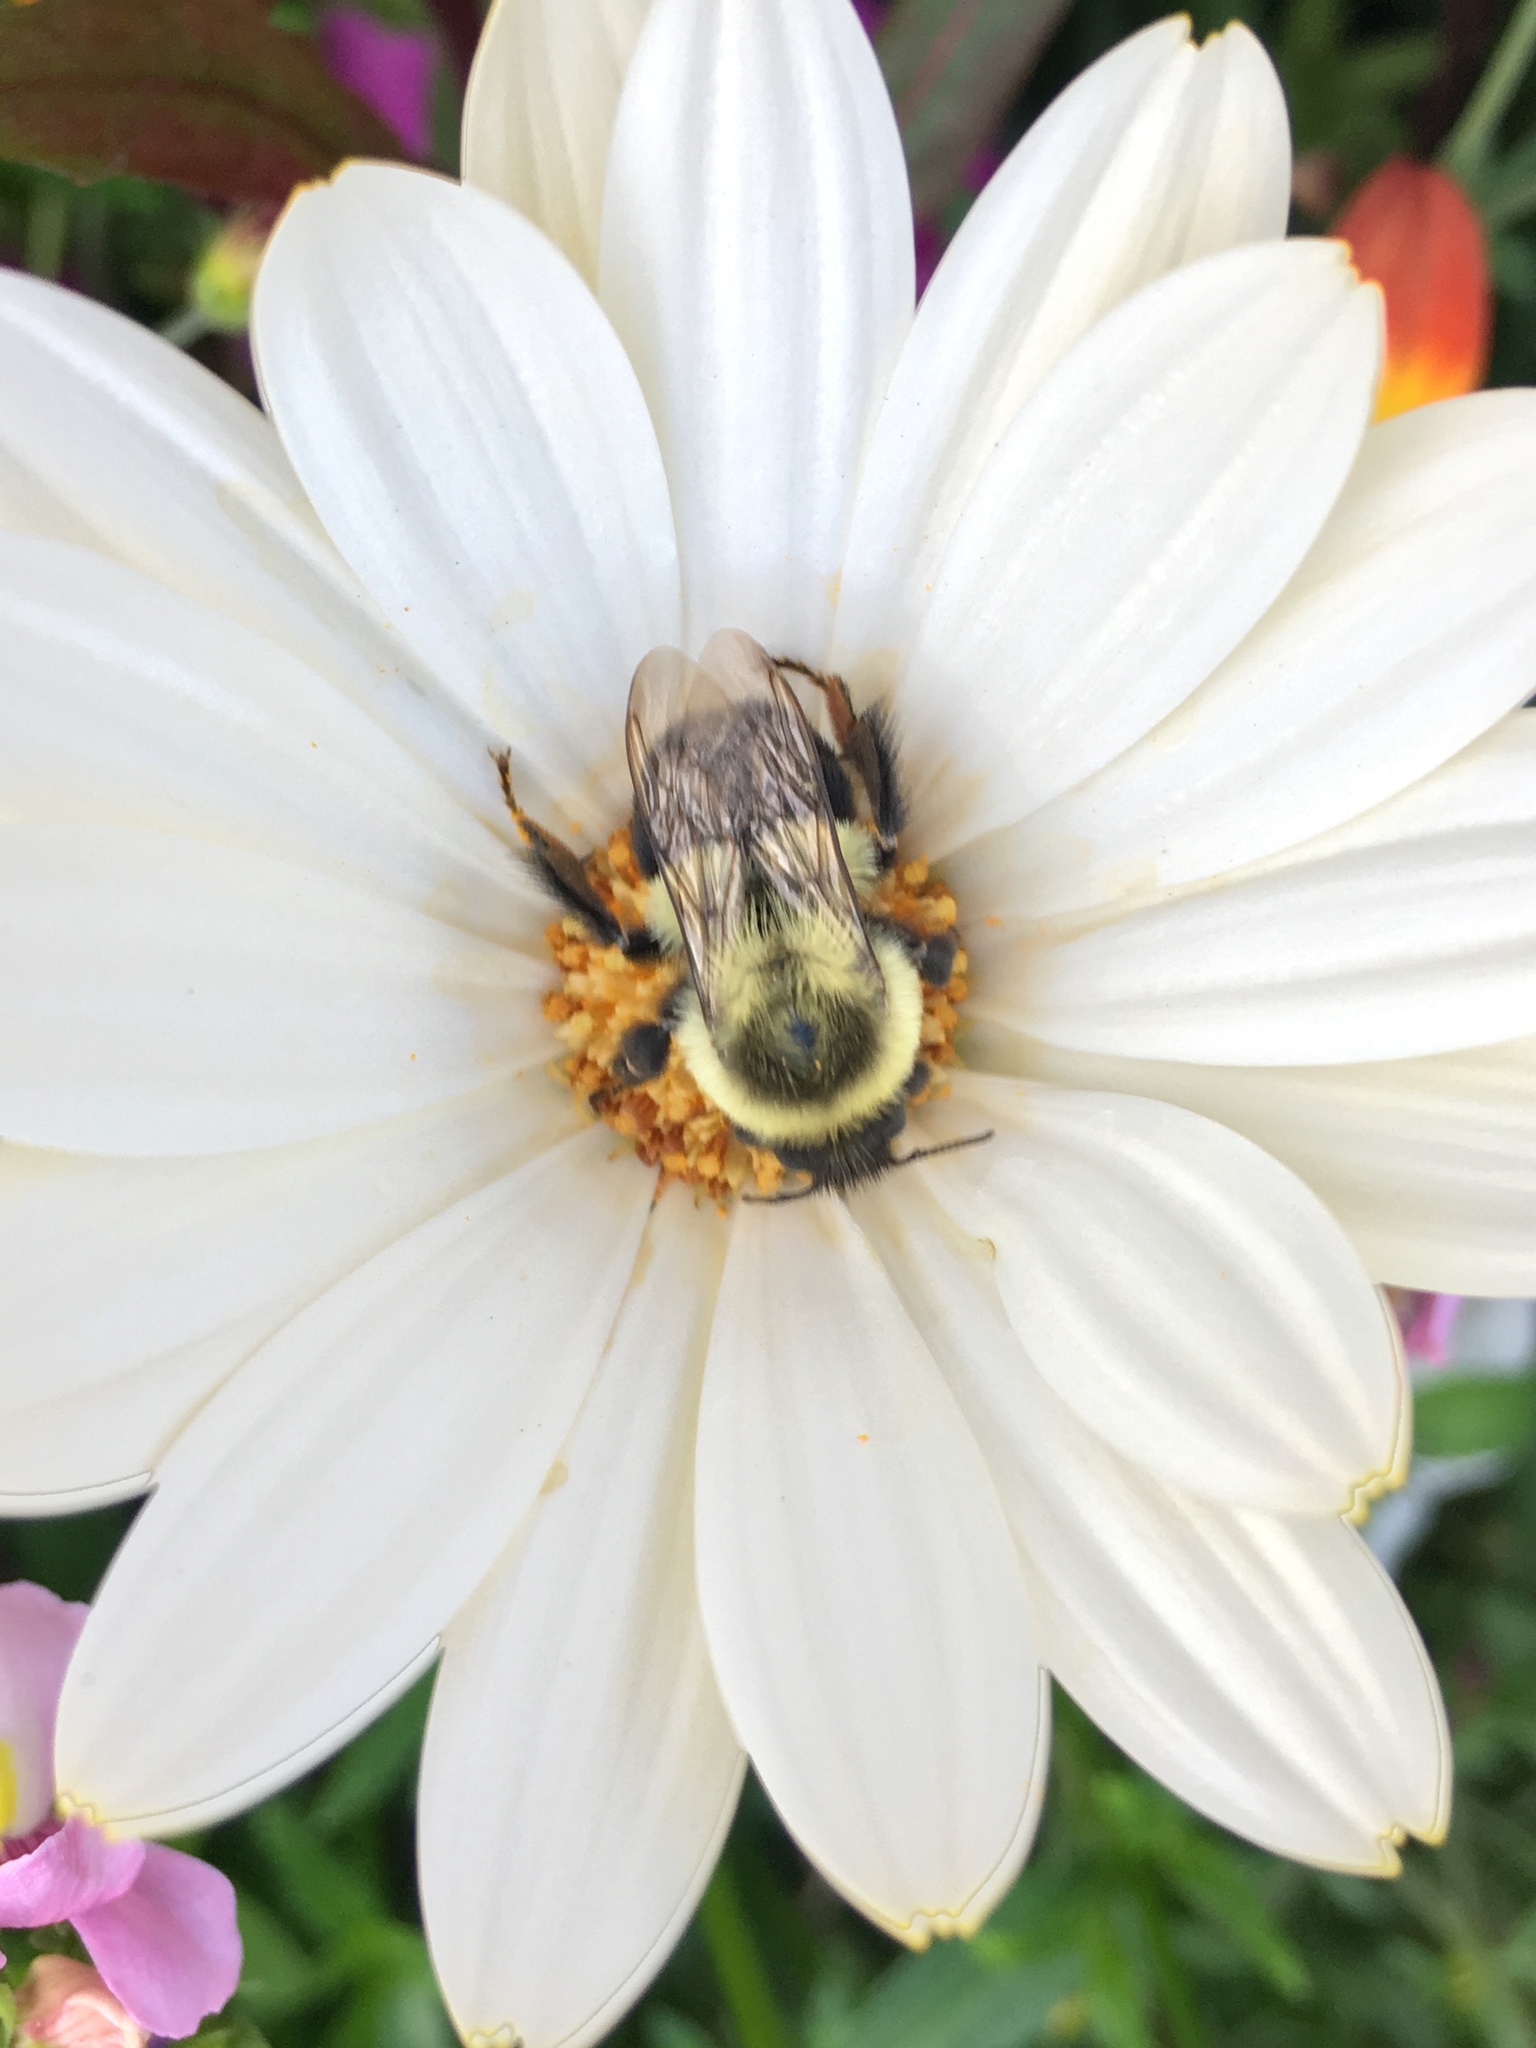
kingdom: Animalia
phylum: Arthropoda
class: Insecta
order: Hymenoptera
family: Apidae
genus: Bombus
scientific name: Bombus impatiens
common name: Common eastern bumble bee
